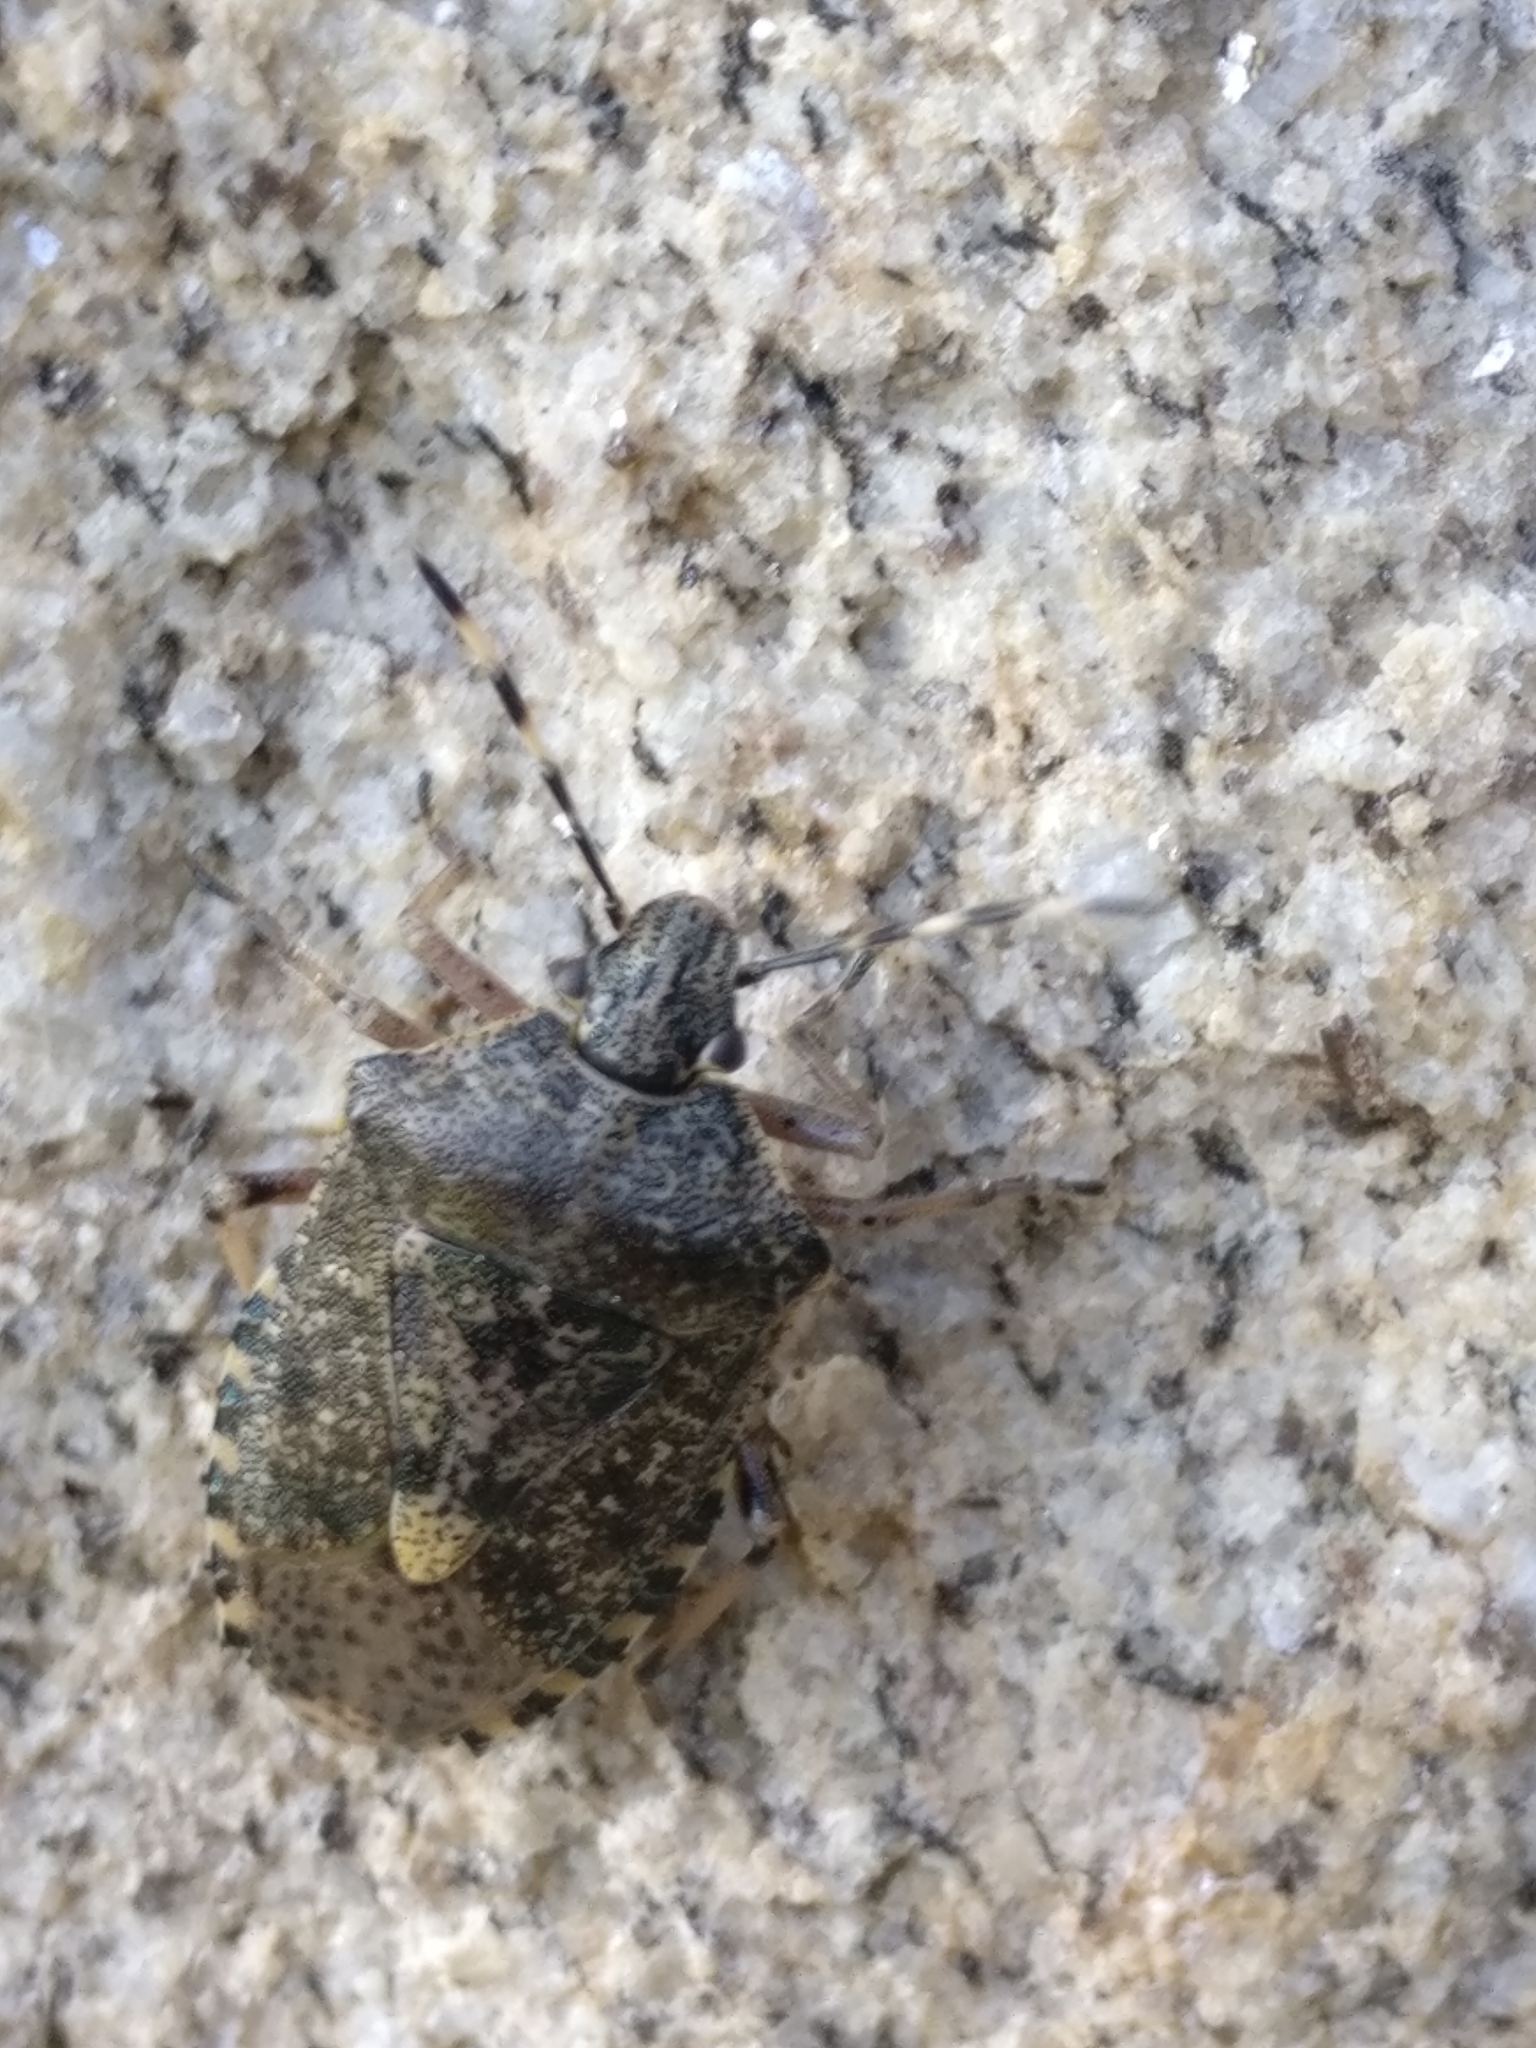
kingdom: Animalia
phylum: Arthropoda
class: Insecta
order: Hemiptera
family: Pentatomidae
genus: Rhaphigaster
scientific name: Rhaphigaster nebulosa
